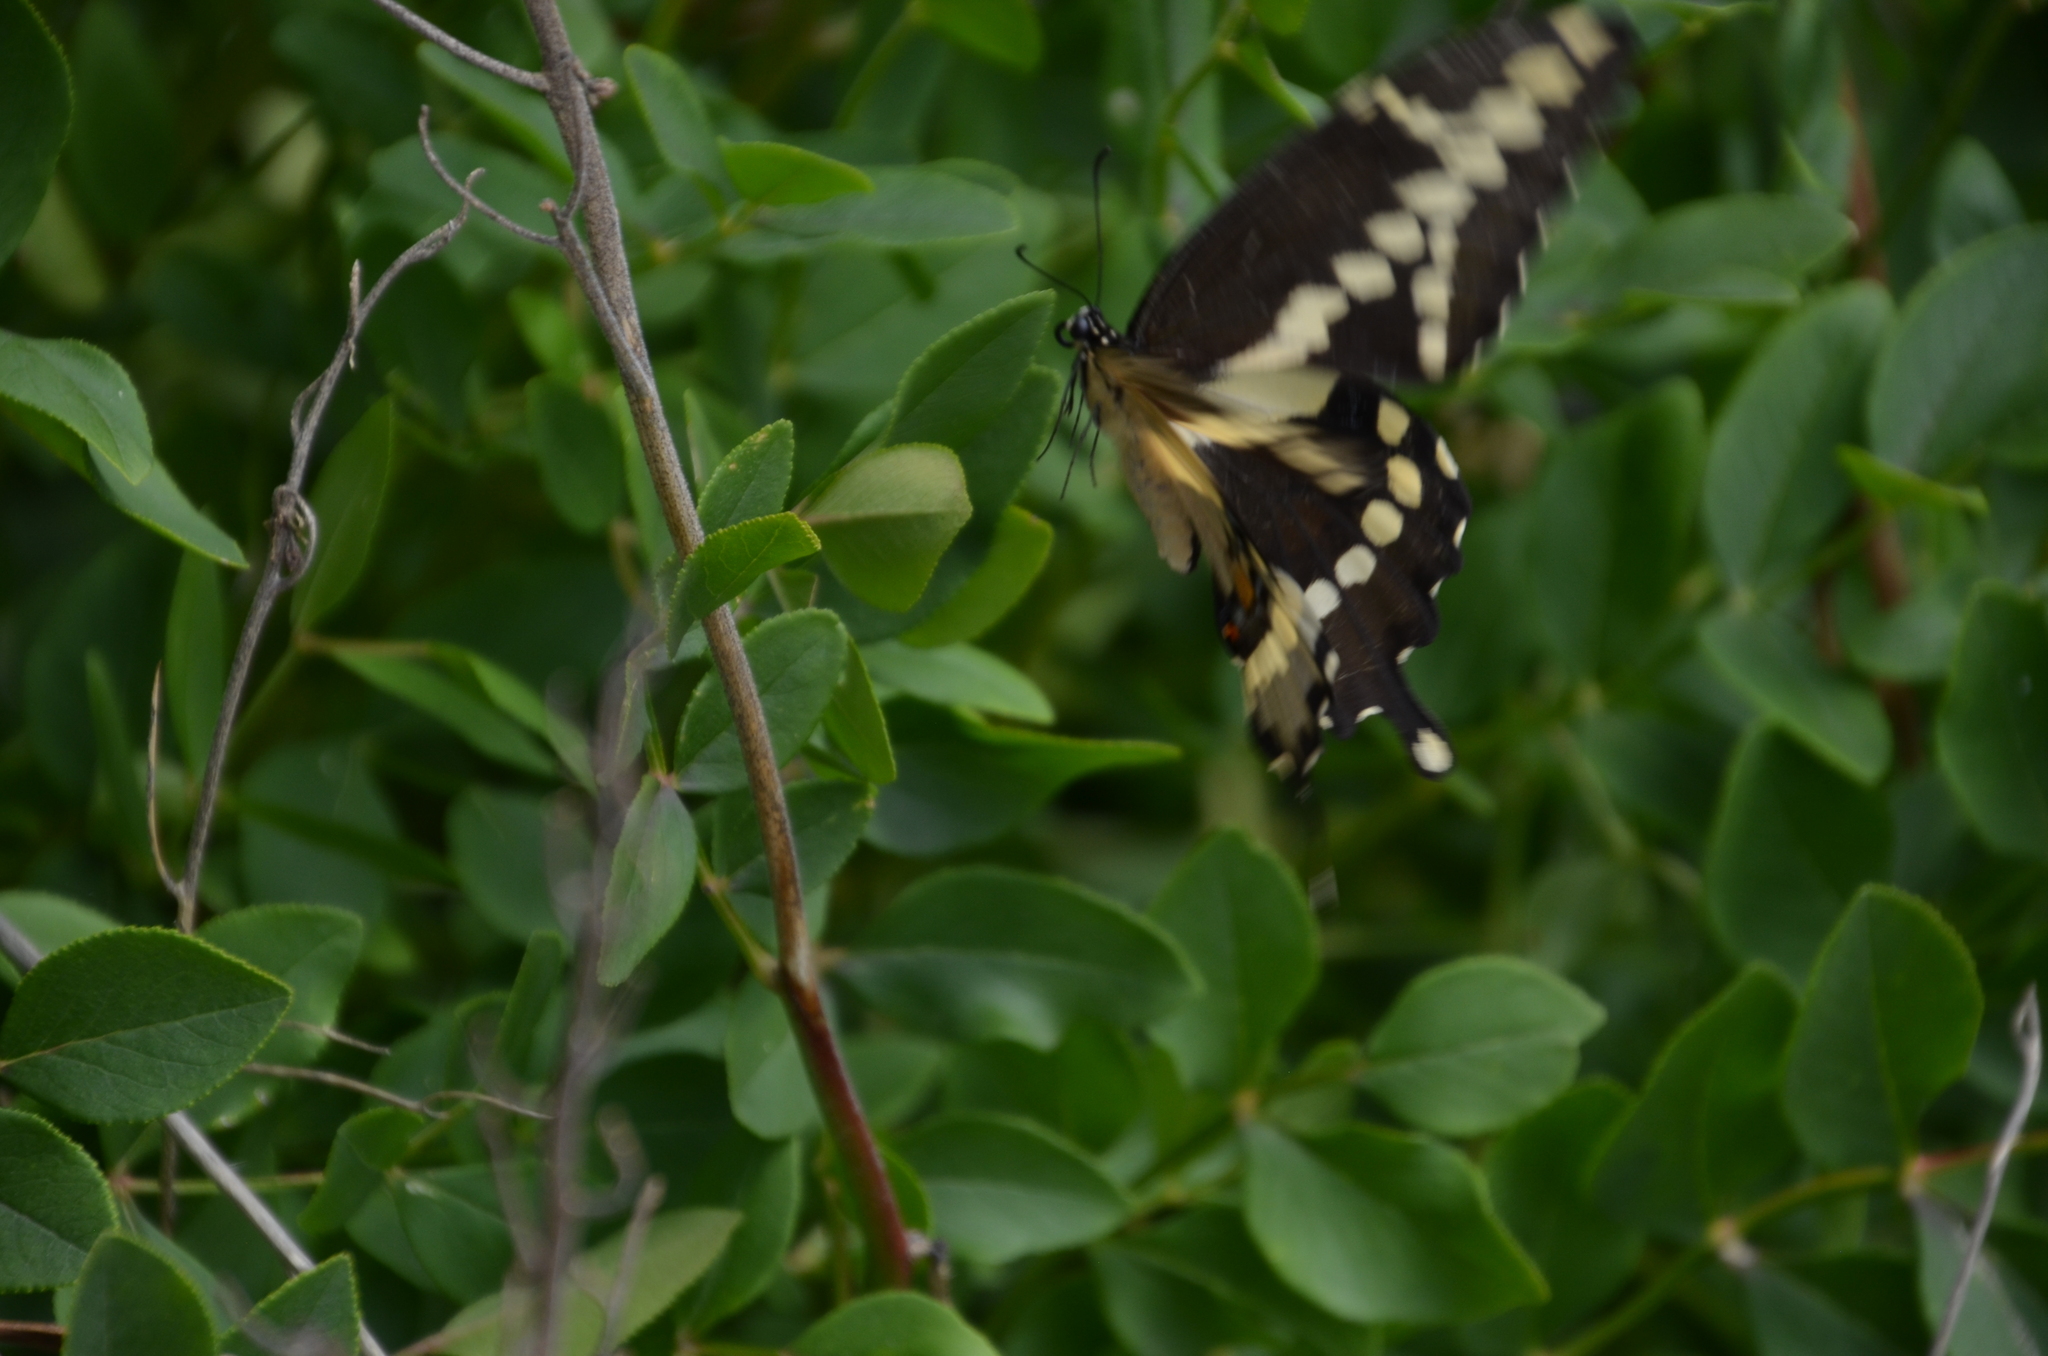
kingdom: Animalia
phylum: Arthropoda
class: Insecta
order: Lepidoptera
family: Papilionidae
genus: Papilio
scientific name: Papilio cresphontes
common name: Giant swallowtail
